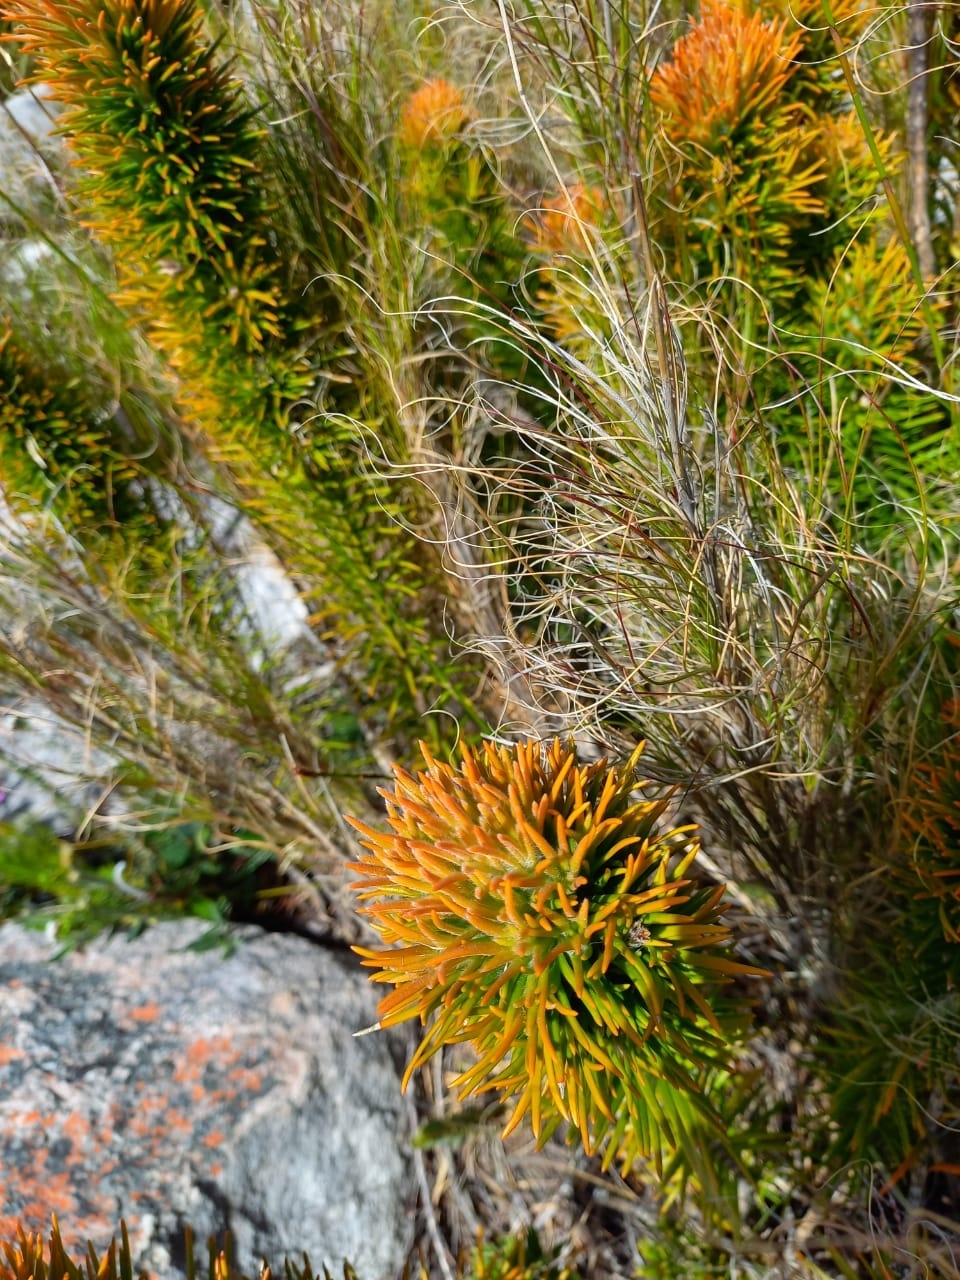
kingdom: Plantae
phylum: Tracheophyta
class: Magnoliopsida
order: Lamiales
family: Stilbaceae
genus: Retzia
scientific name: Retzia capensis
